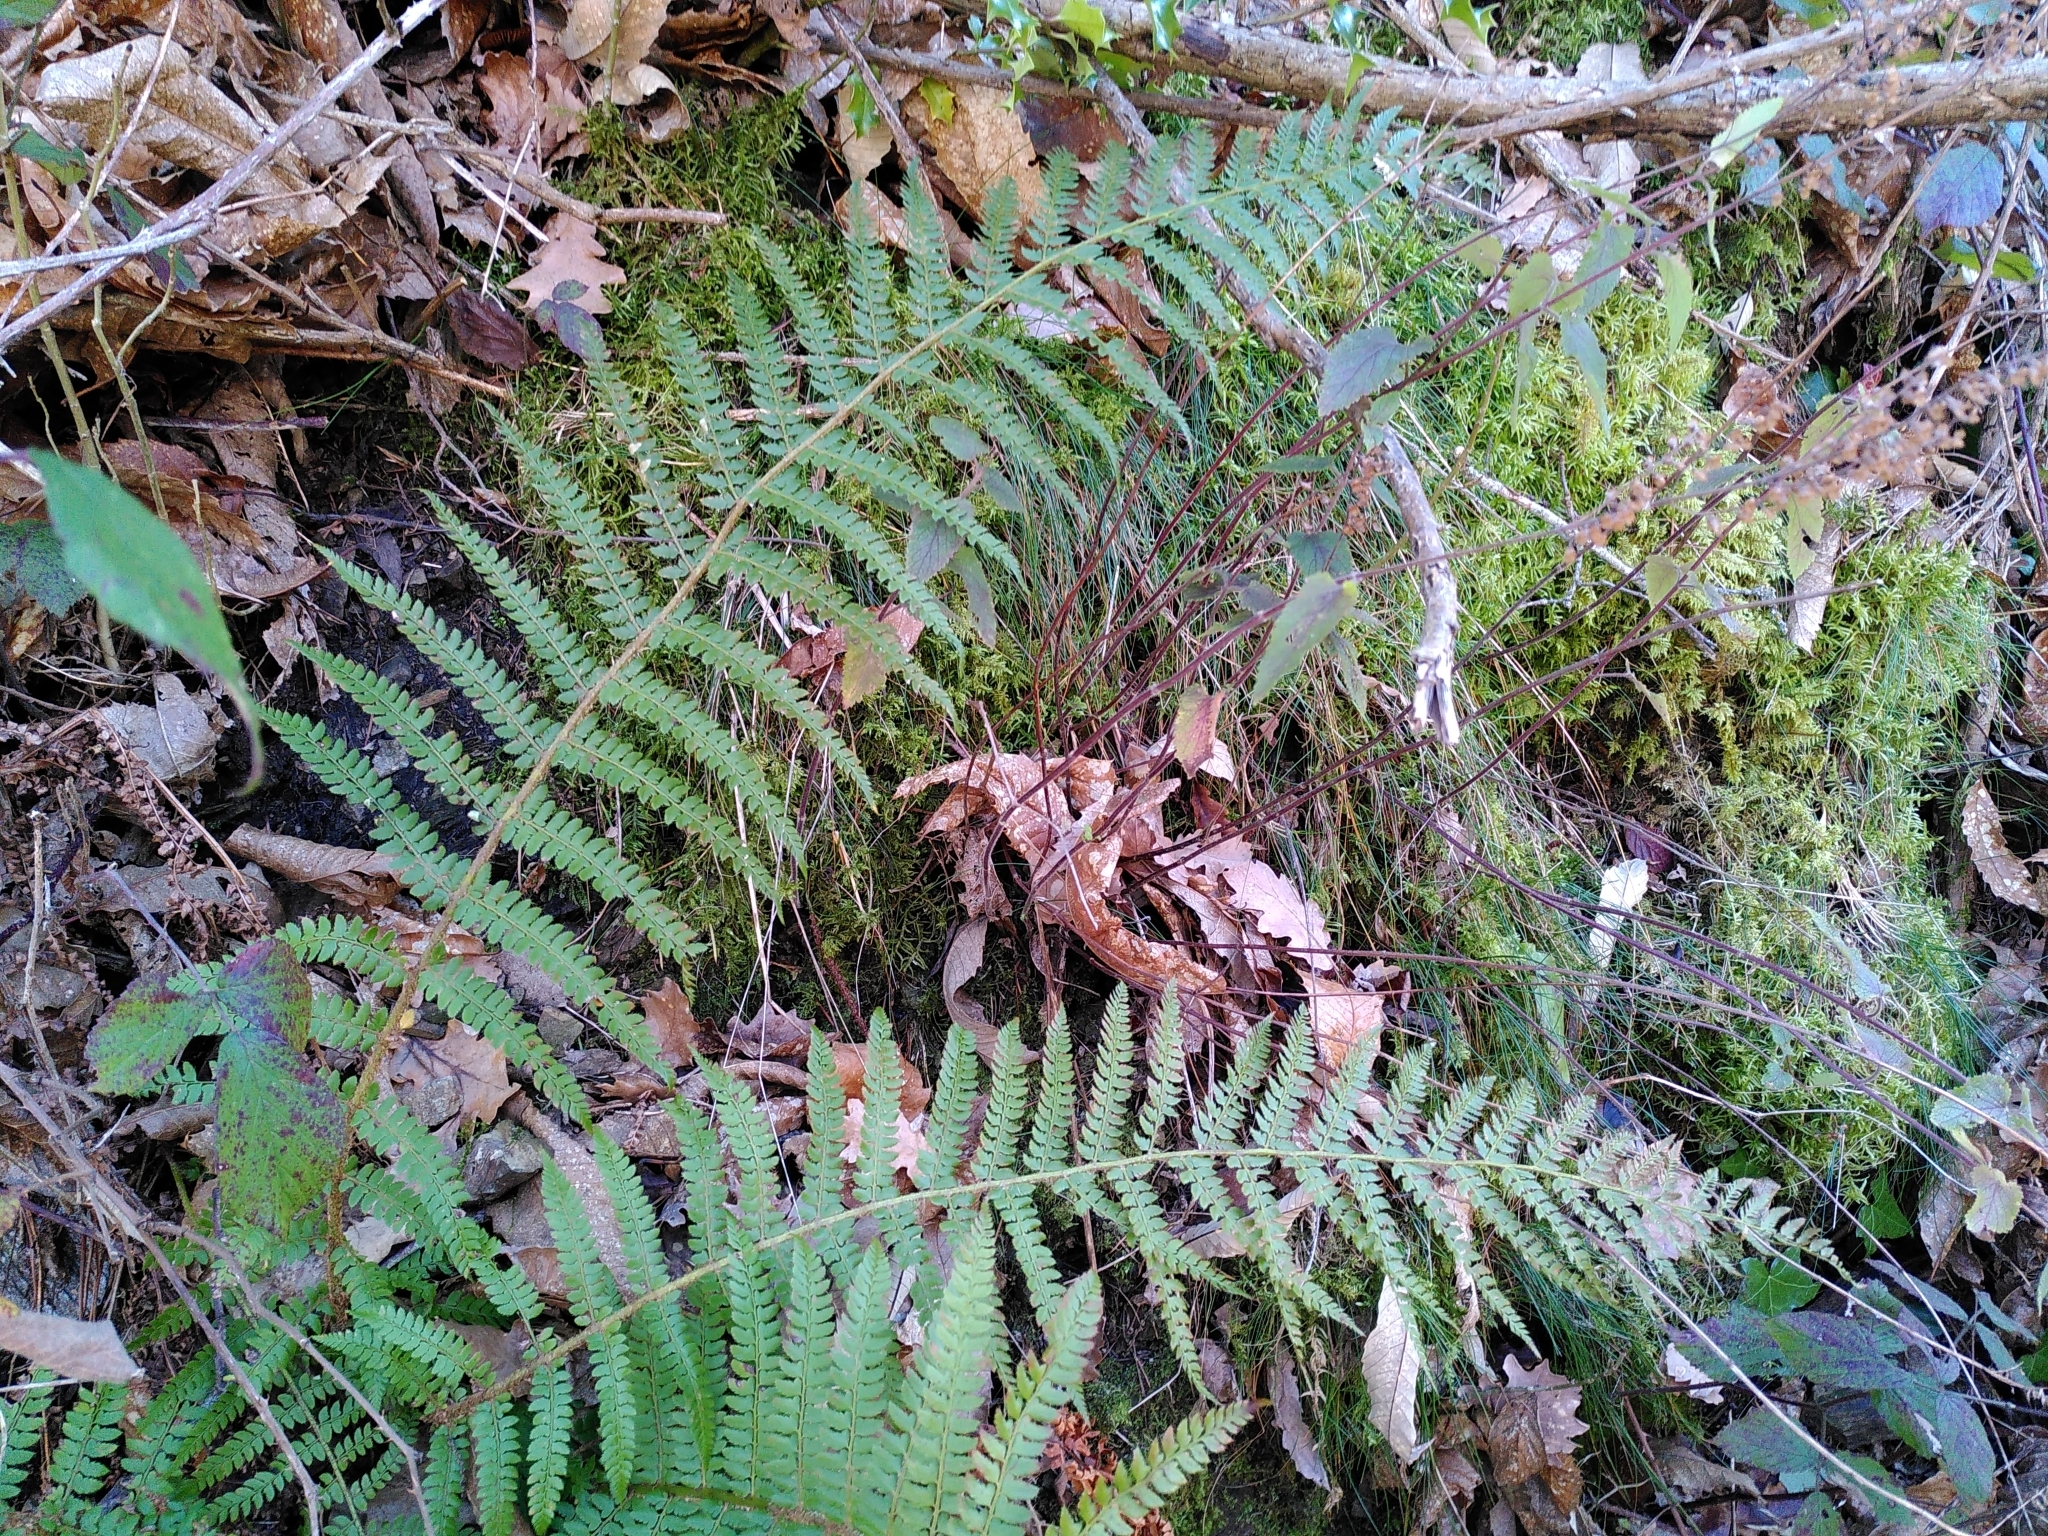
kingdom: Plantae
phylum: Tracheophyta
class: Polypodiopsida
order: Polypodiales
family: Dryopteridaceae
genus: Polystichum
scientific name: Polystichum setiferum
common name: Soft shield-fern
